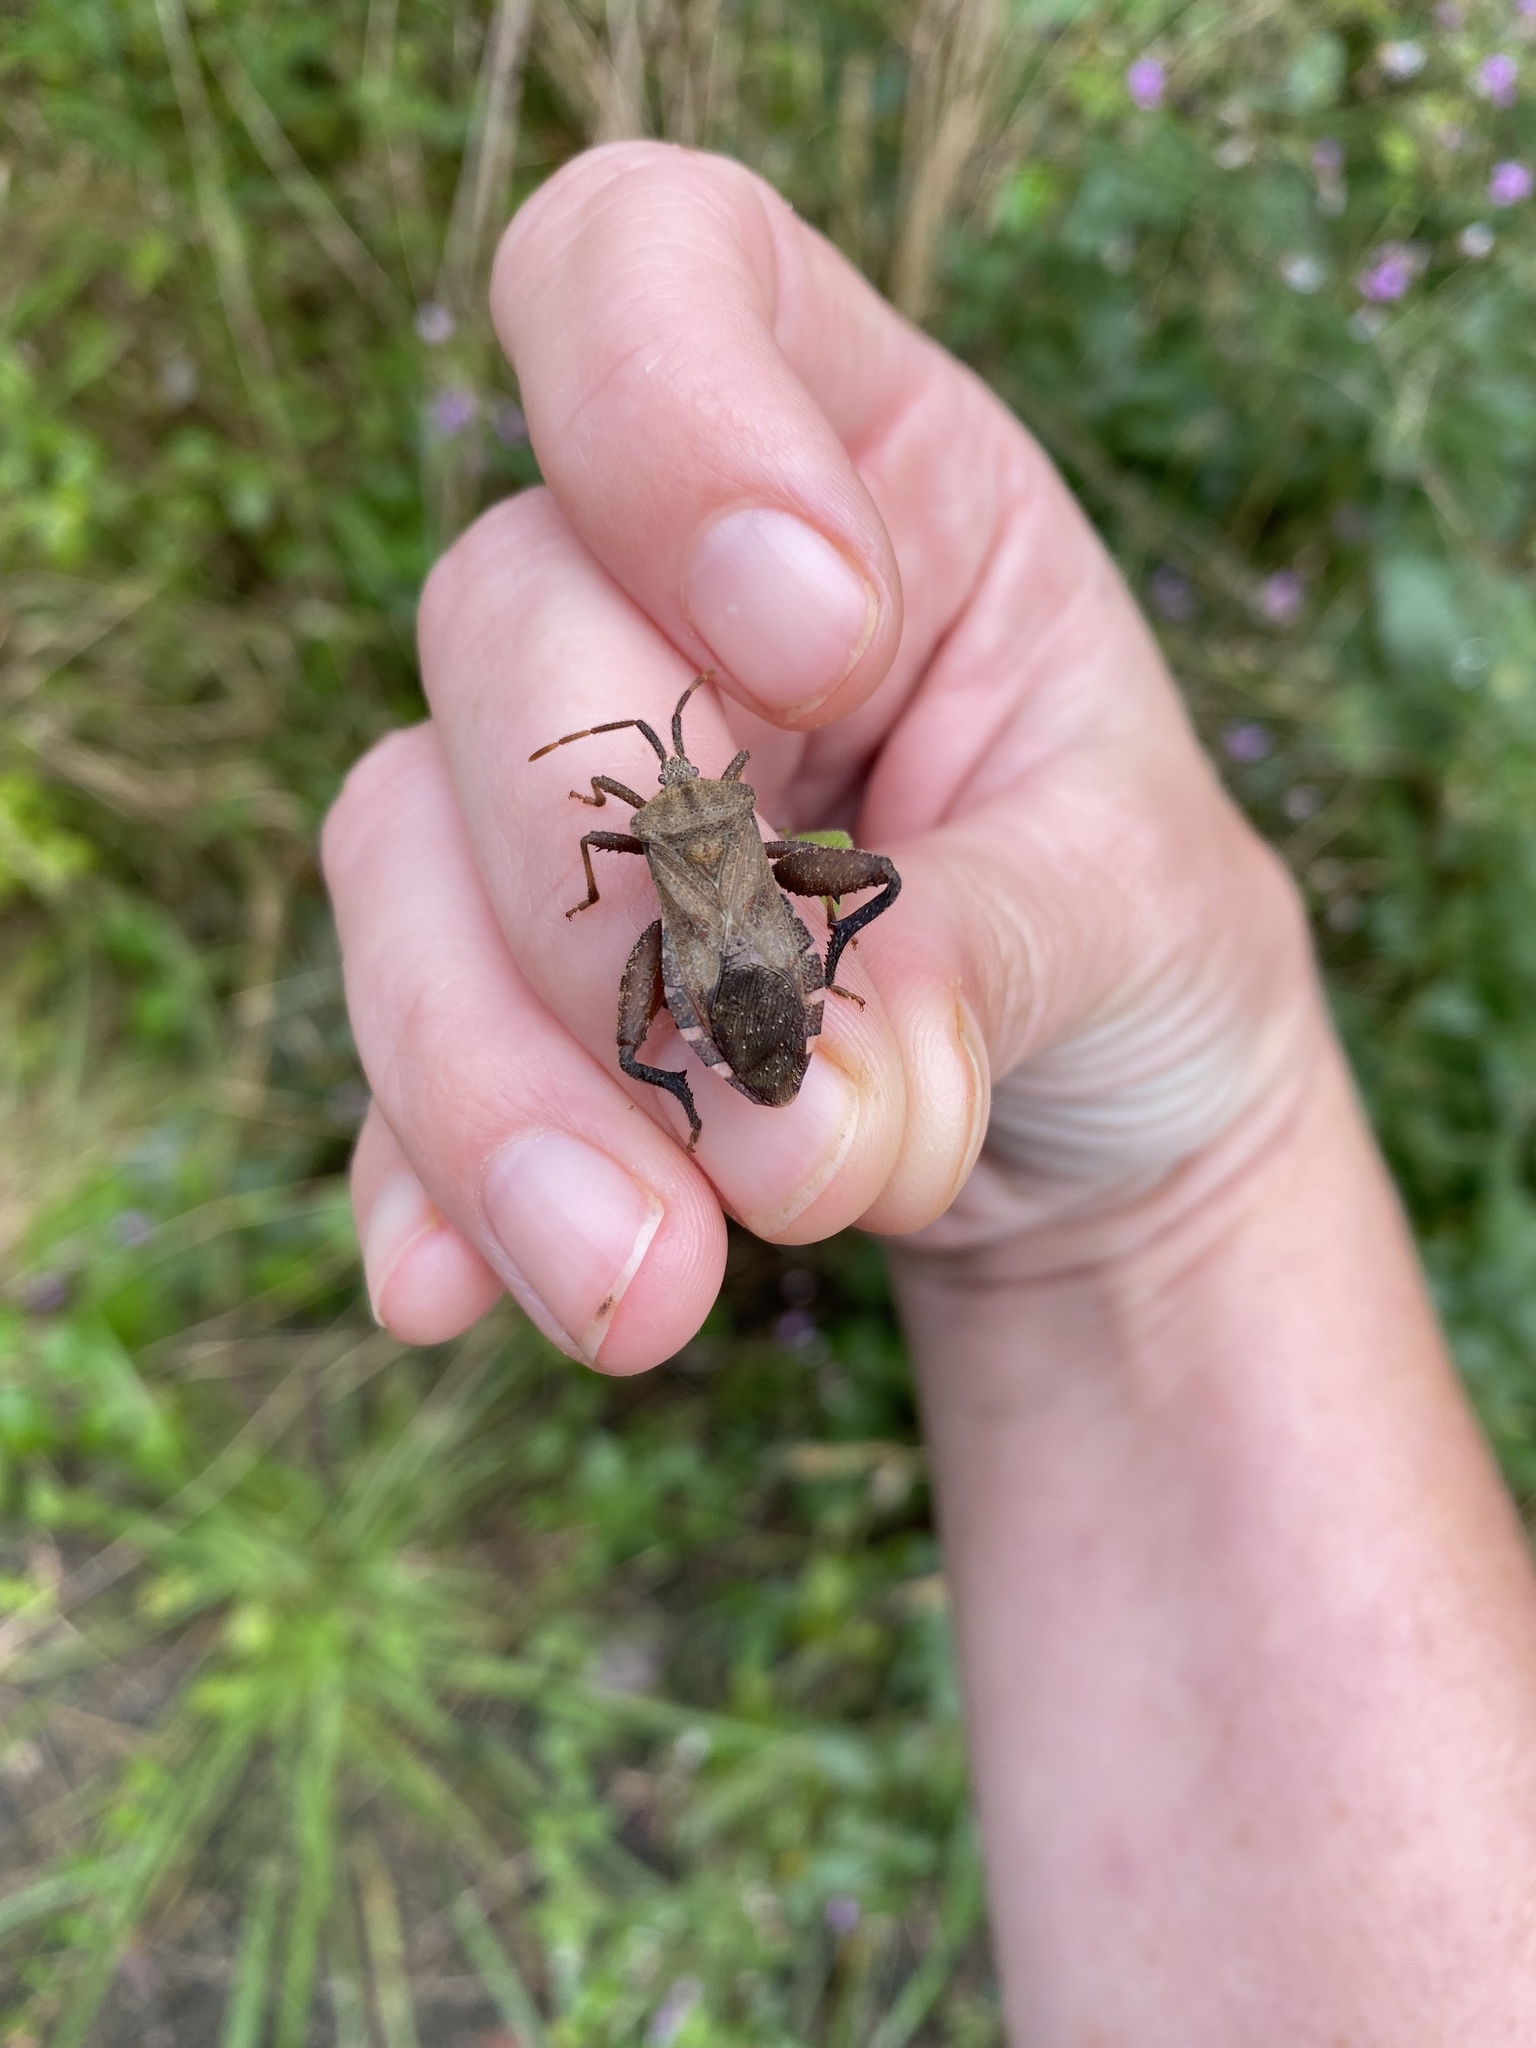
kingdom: Animalia
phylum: Arthropoda
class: Insecta
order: Hemiptera
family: Coreidae
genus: Piezogaster
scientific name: Piezogaster calcarator
